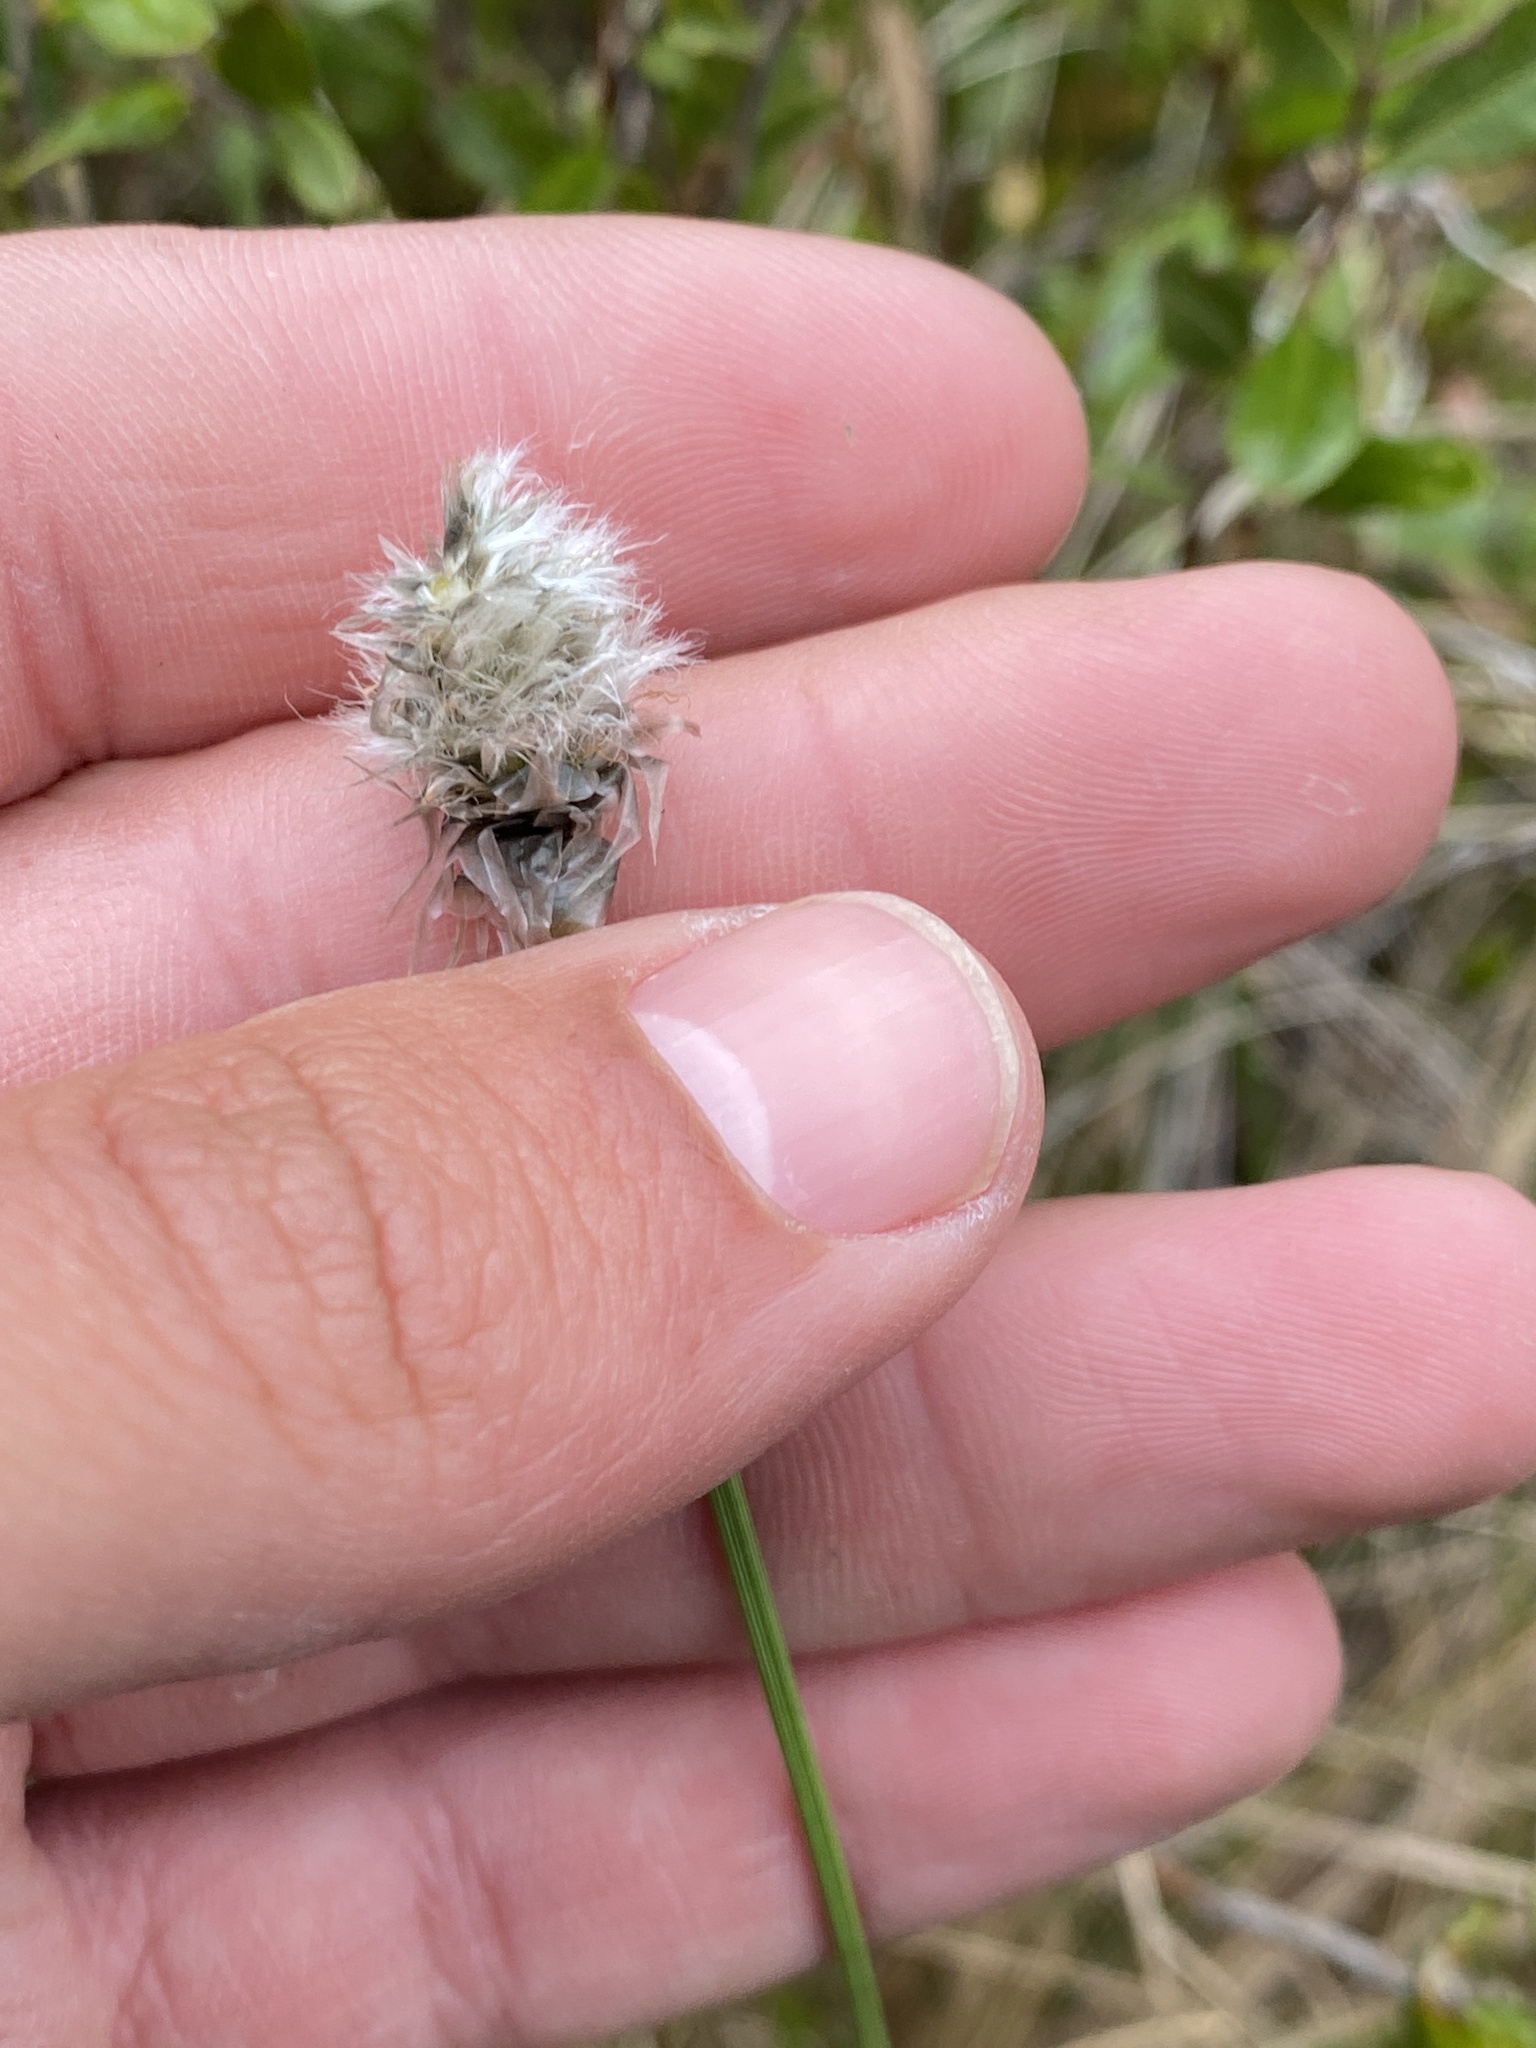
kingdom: Plantae
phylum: Tracheophyta
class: Liliopsida
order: Poales
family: Cyperaceae
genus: Eriophorum
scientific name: Eriophorum vaginatum
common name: Hare's-tail cottongrass
